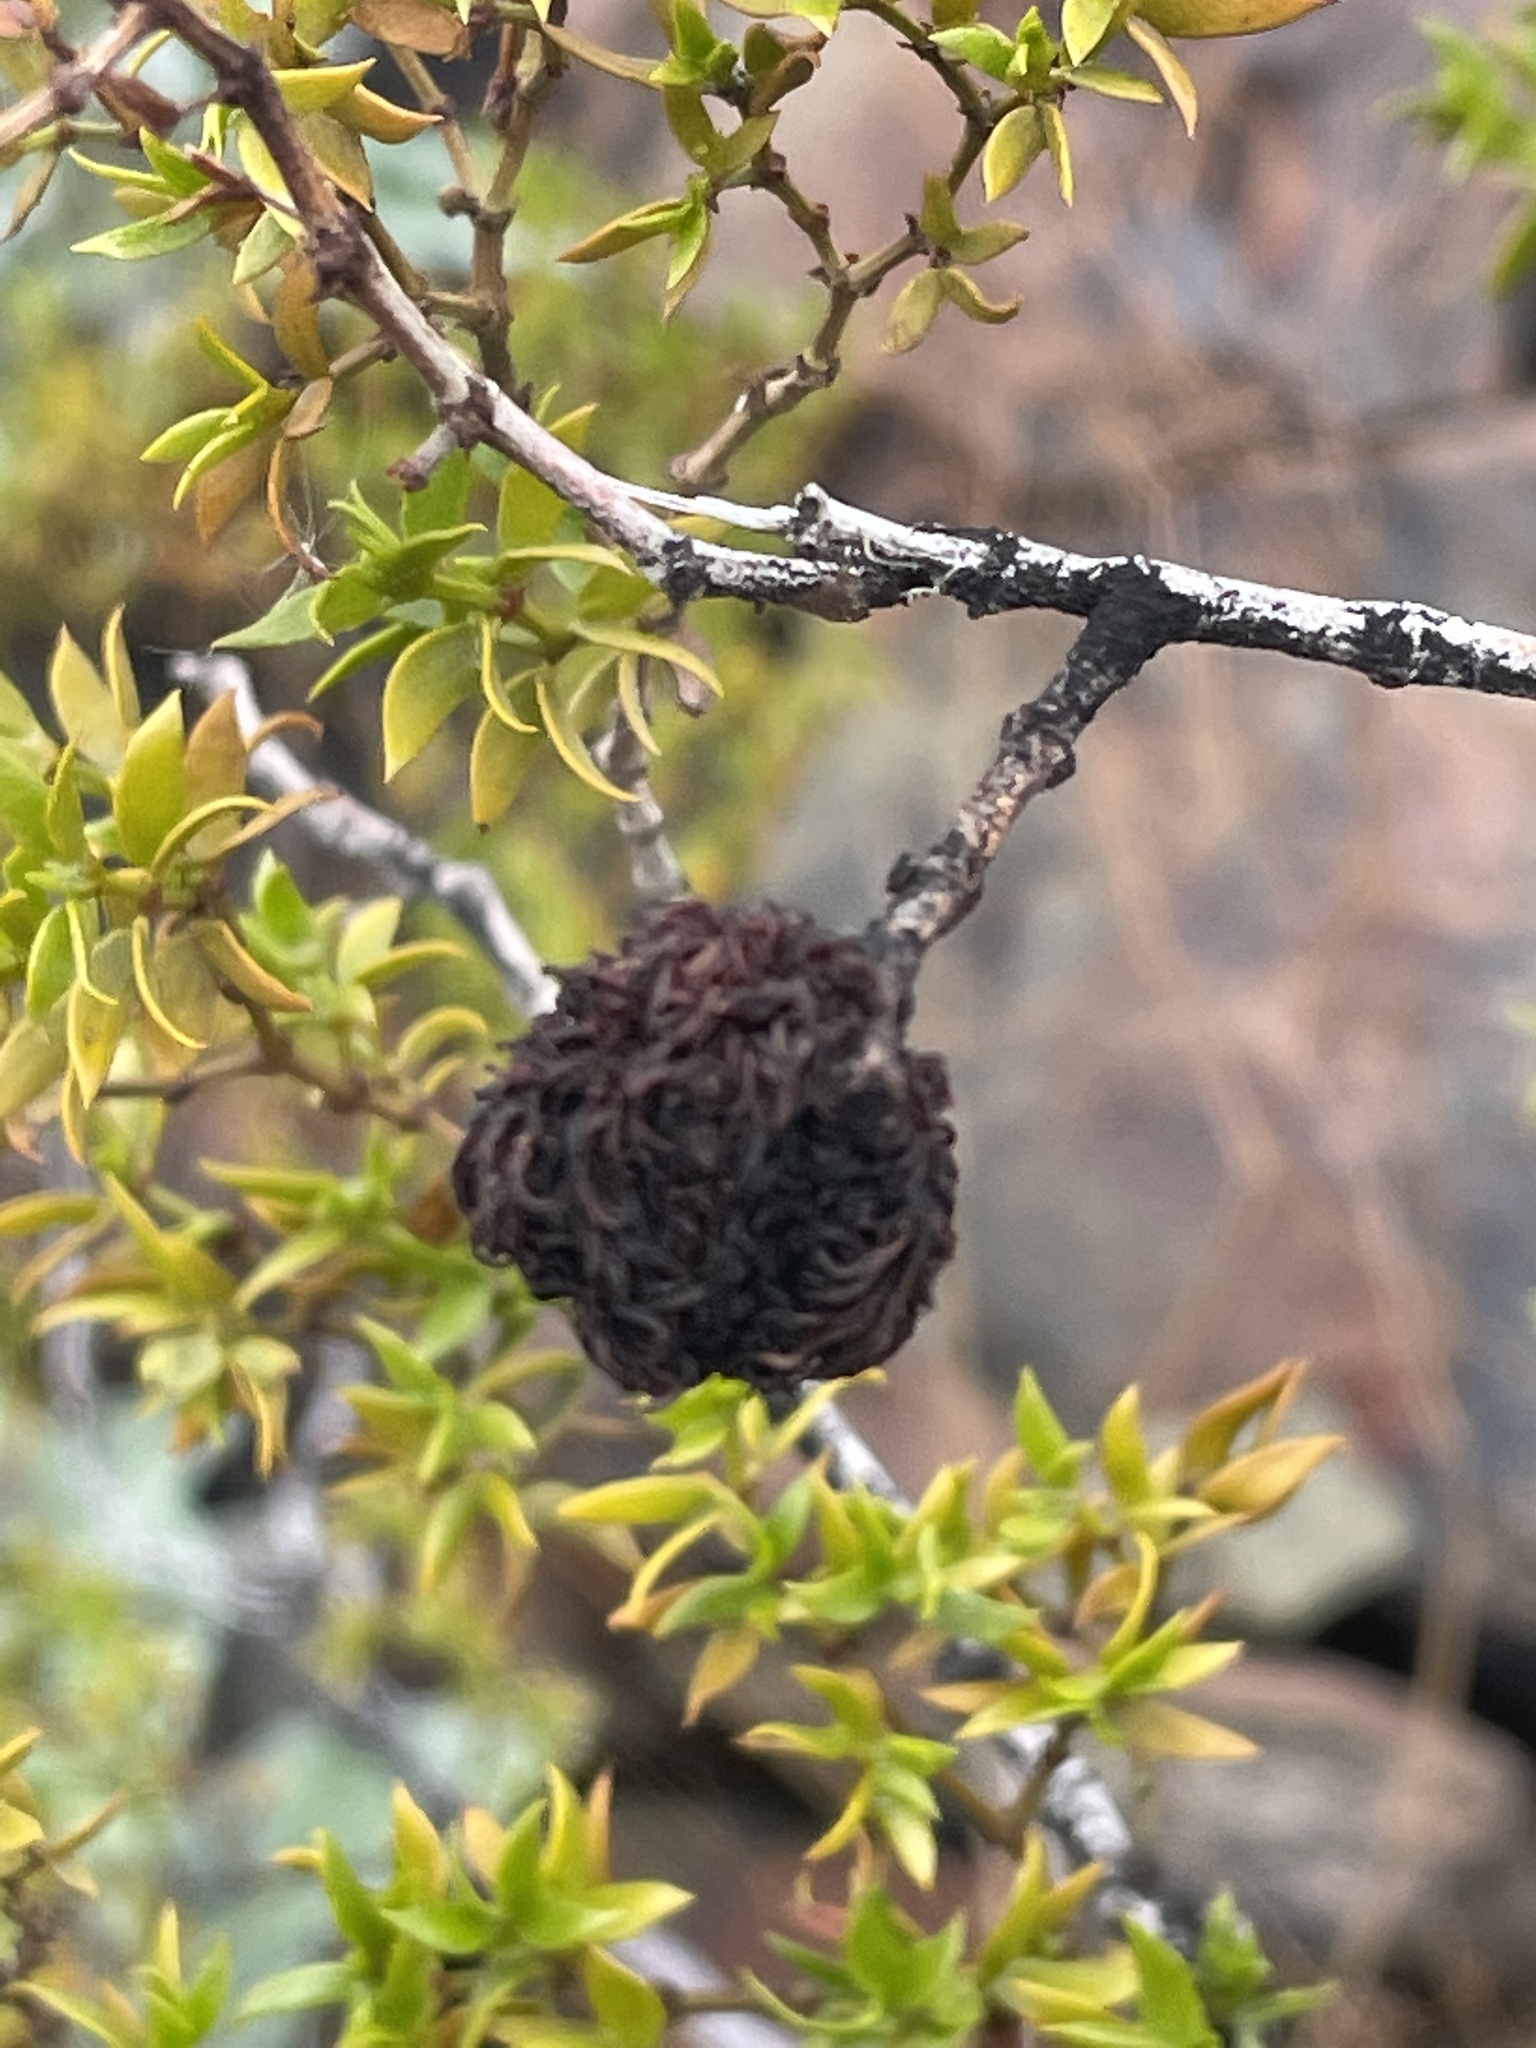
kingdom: Animalia
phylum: Arthropoda
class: Insecta
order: Diptera
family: Cecidomyiidae
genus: Asphondylia
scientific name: Asphondylia auripila
